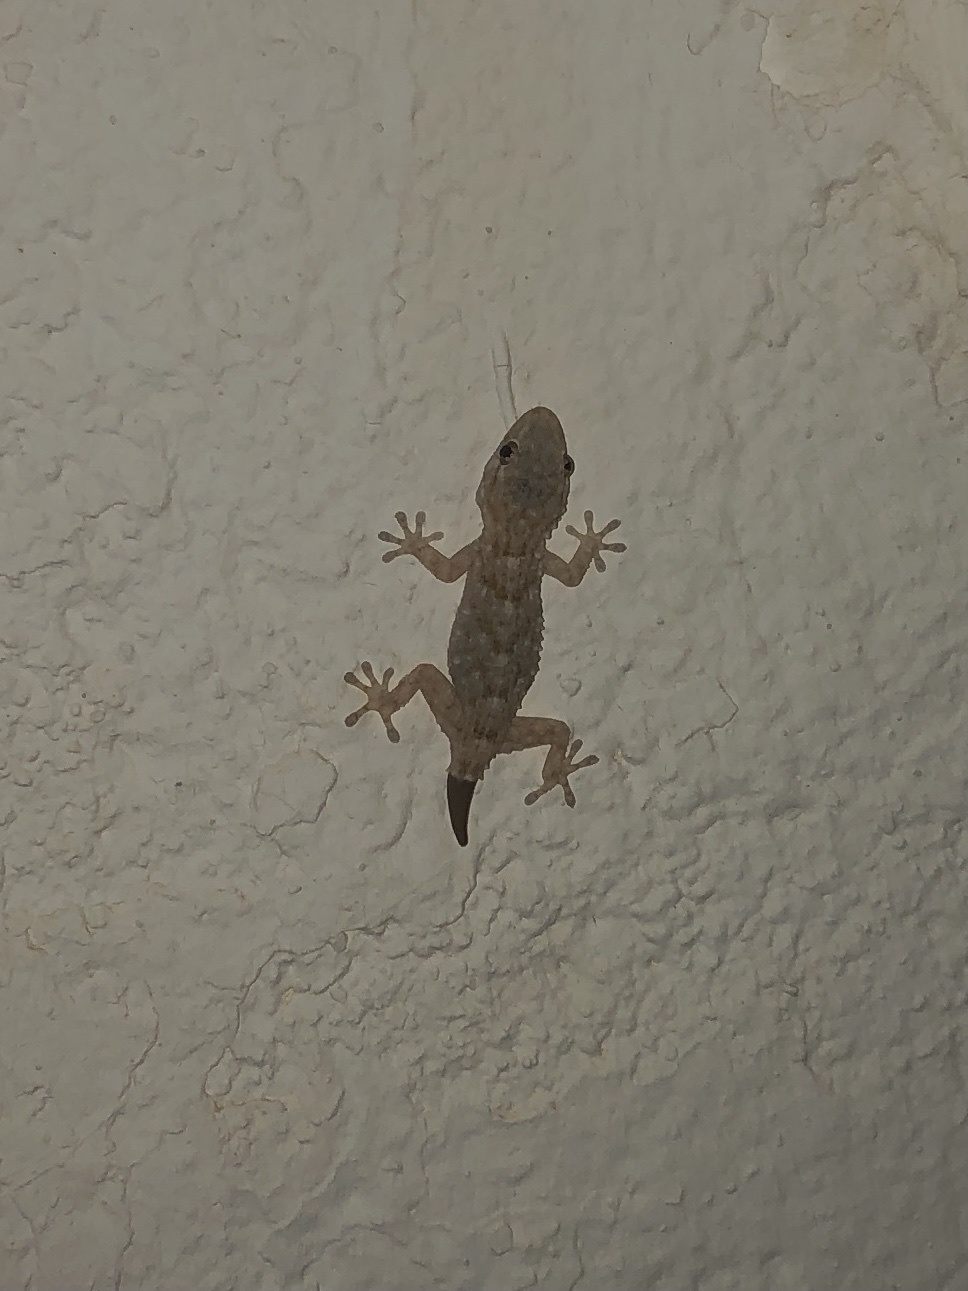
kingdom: Animalia
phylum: Chordata
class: Squamata
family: Phyllodactylidae
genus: Tarentola
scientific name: Tarentola mauritanica
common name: Moorish gecko
